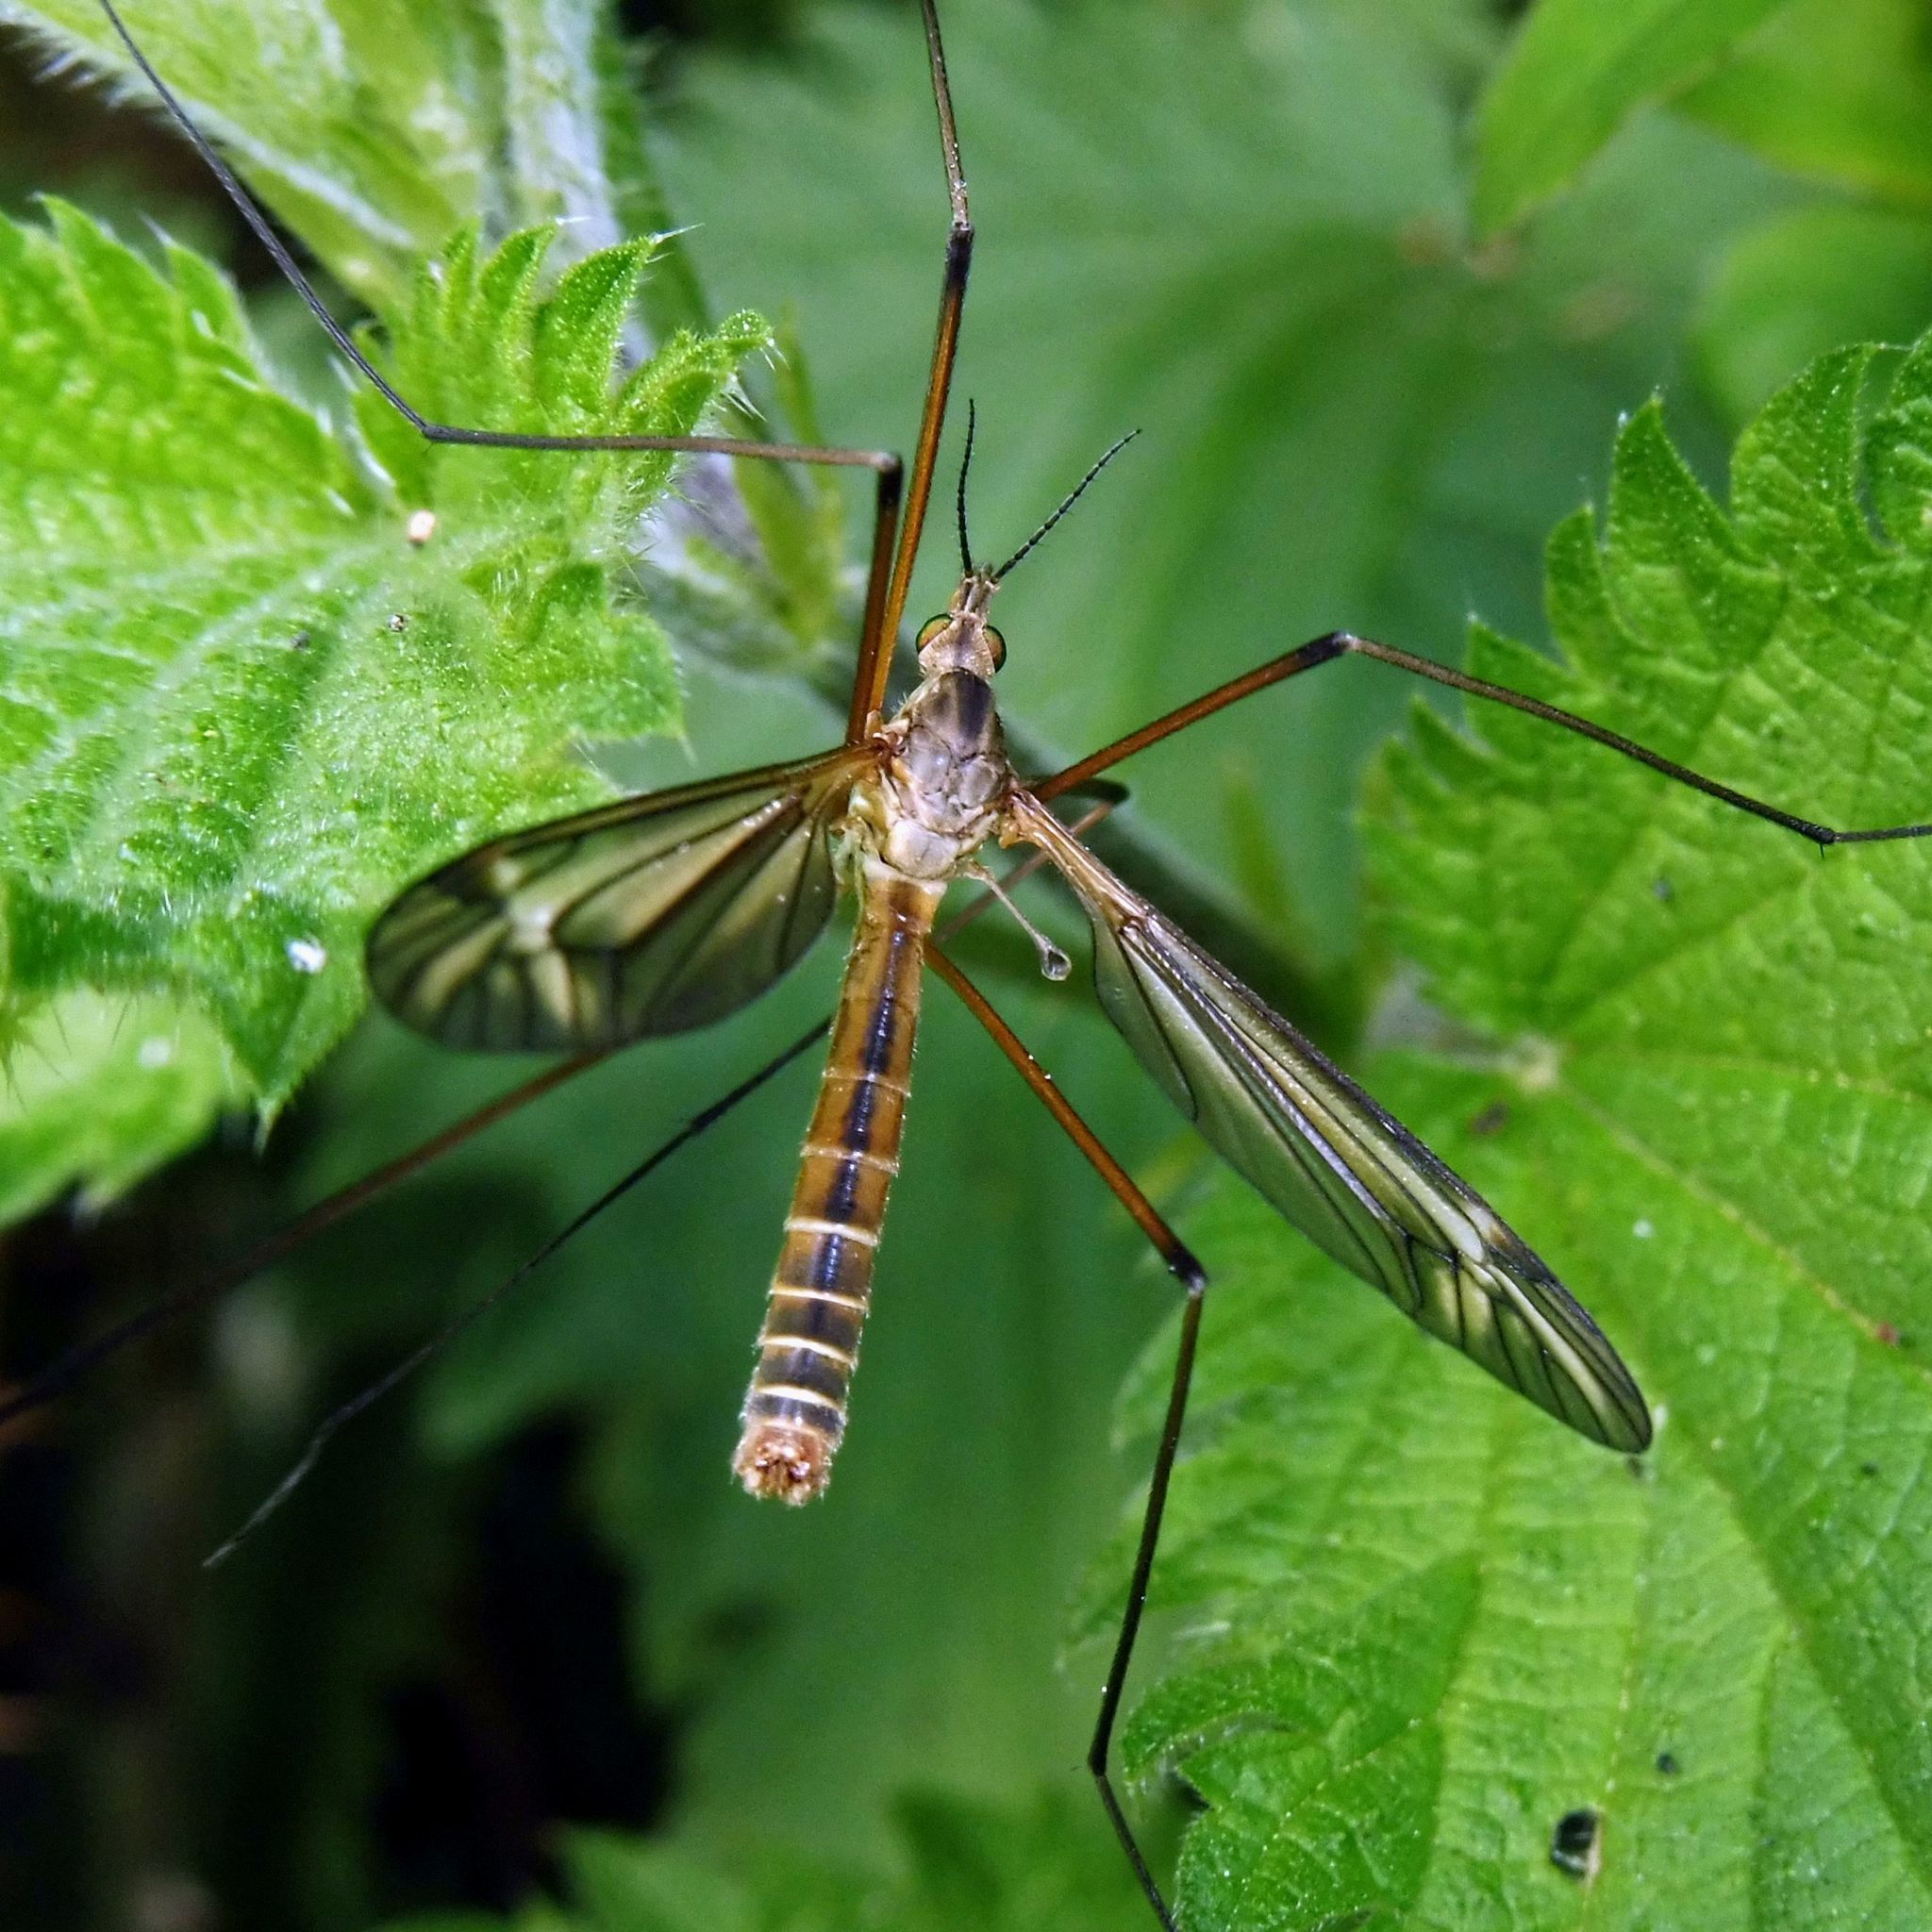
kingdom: Animalia
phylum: Arthropoda
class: Insecta
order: Diptera
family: Tipulidae
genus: Tipula
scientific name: Tipula vernalis
